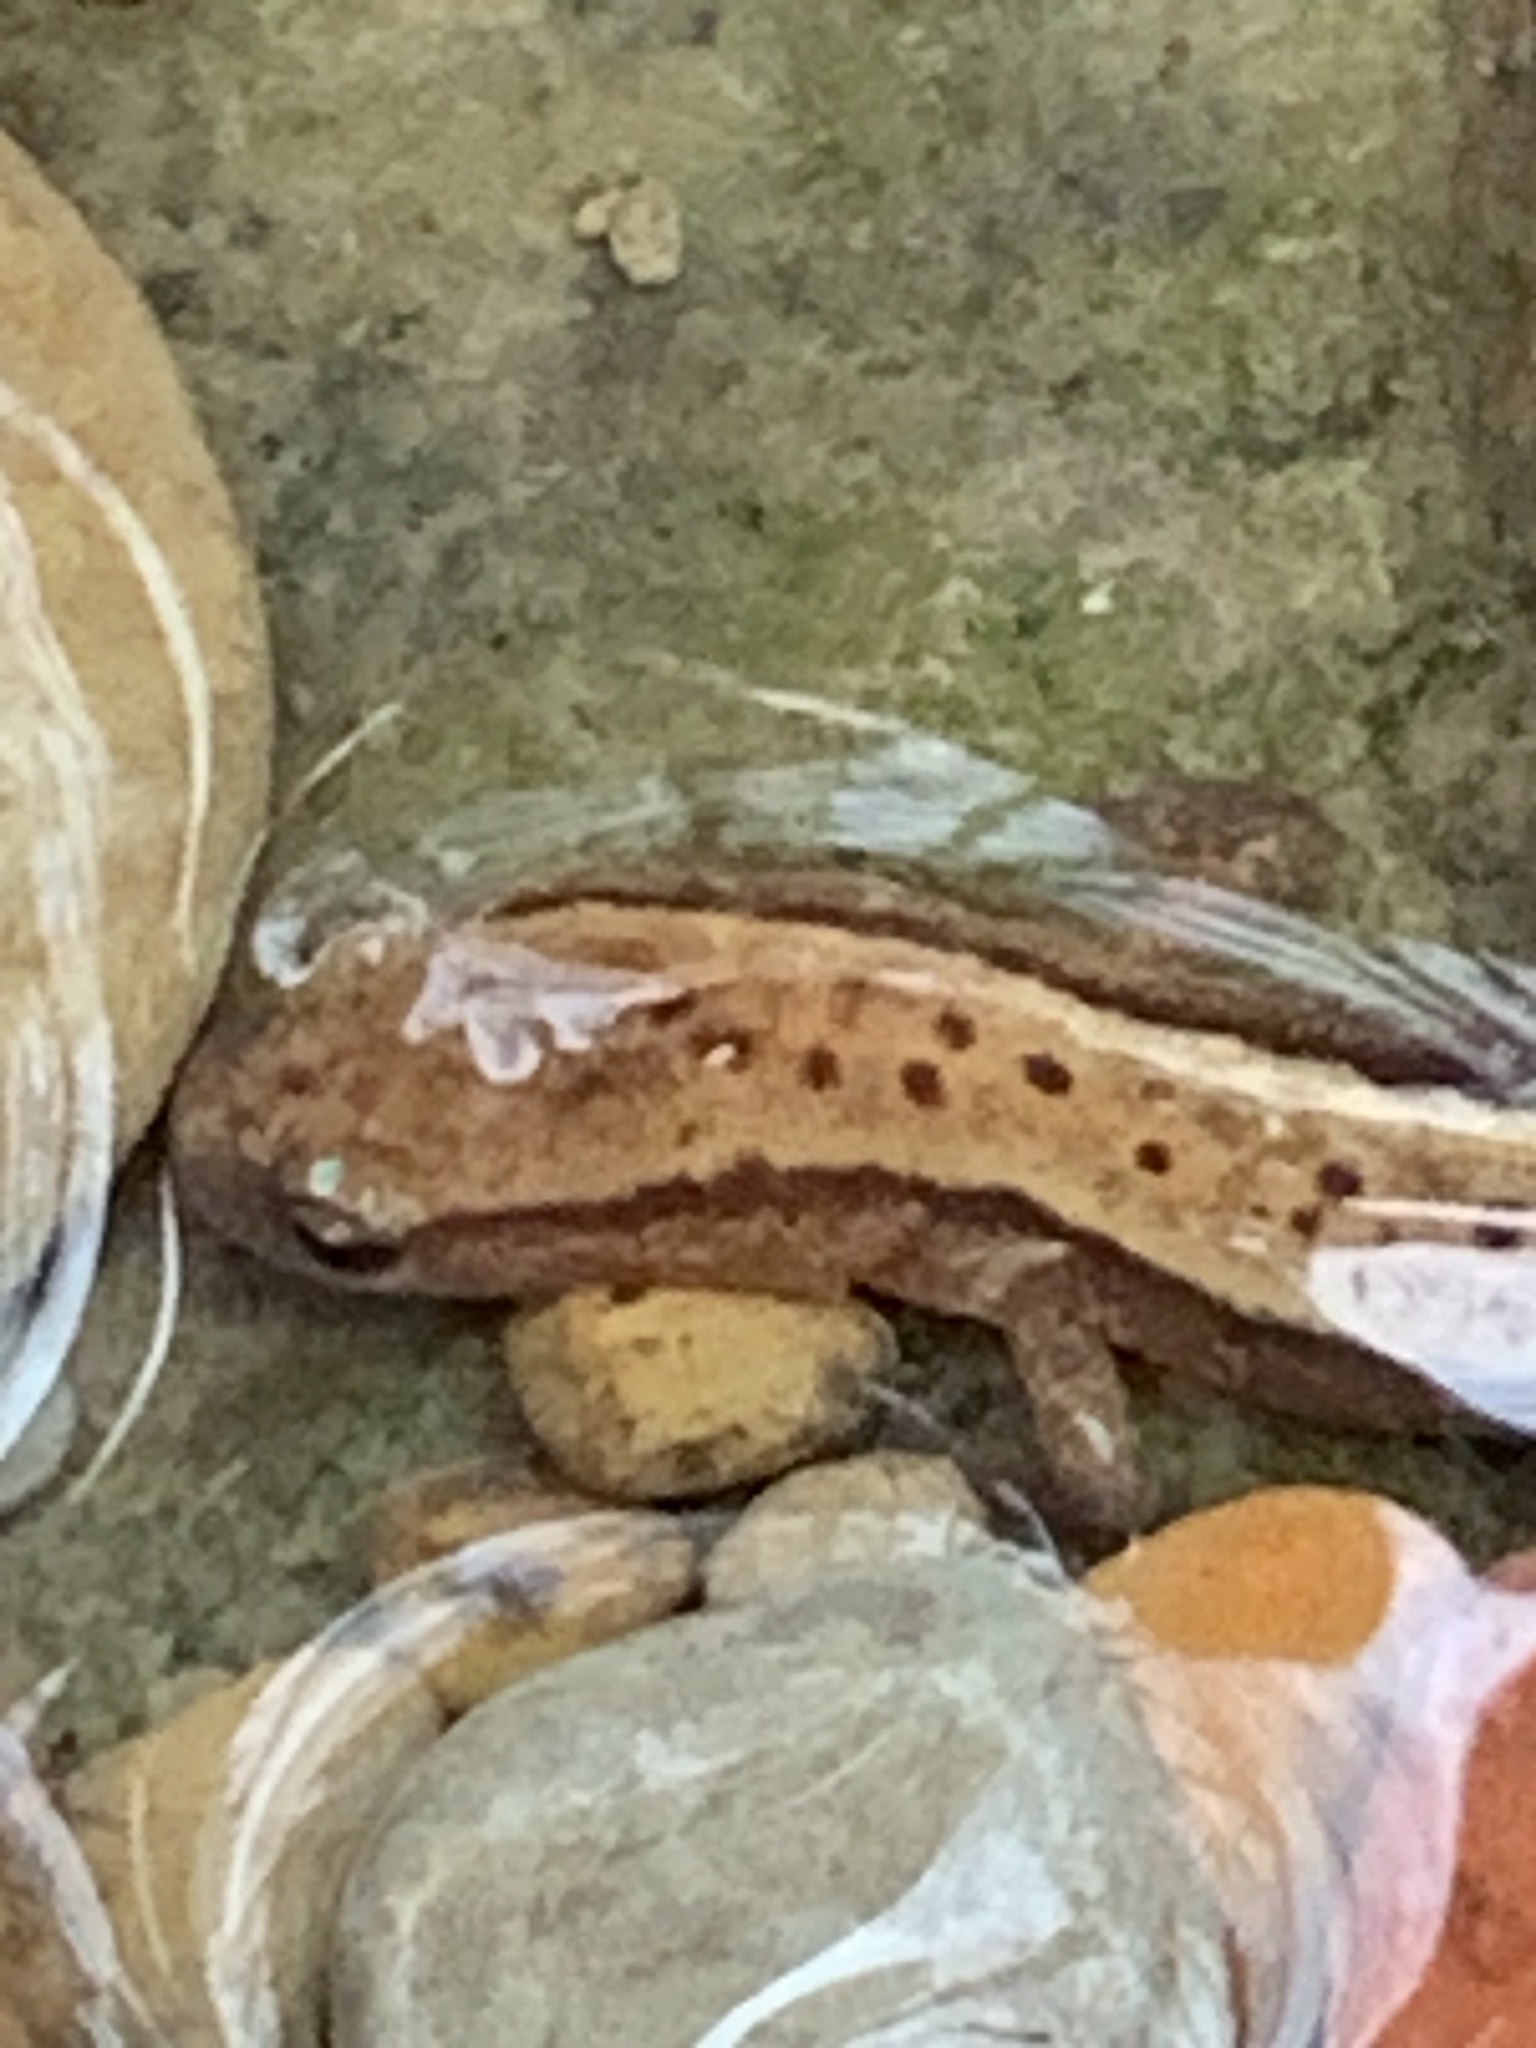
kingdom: Animalia
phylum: Chordata
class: Amphibia
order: Caudata
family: Plethodontidae
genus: Eurycea
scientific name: Eurycea cirrigera
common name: Southern two-lined salamander
